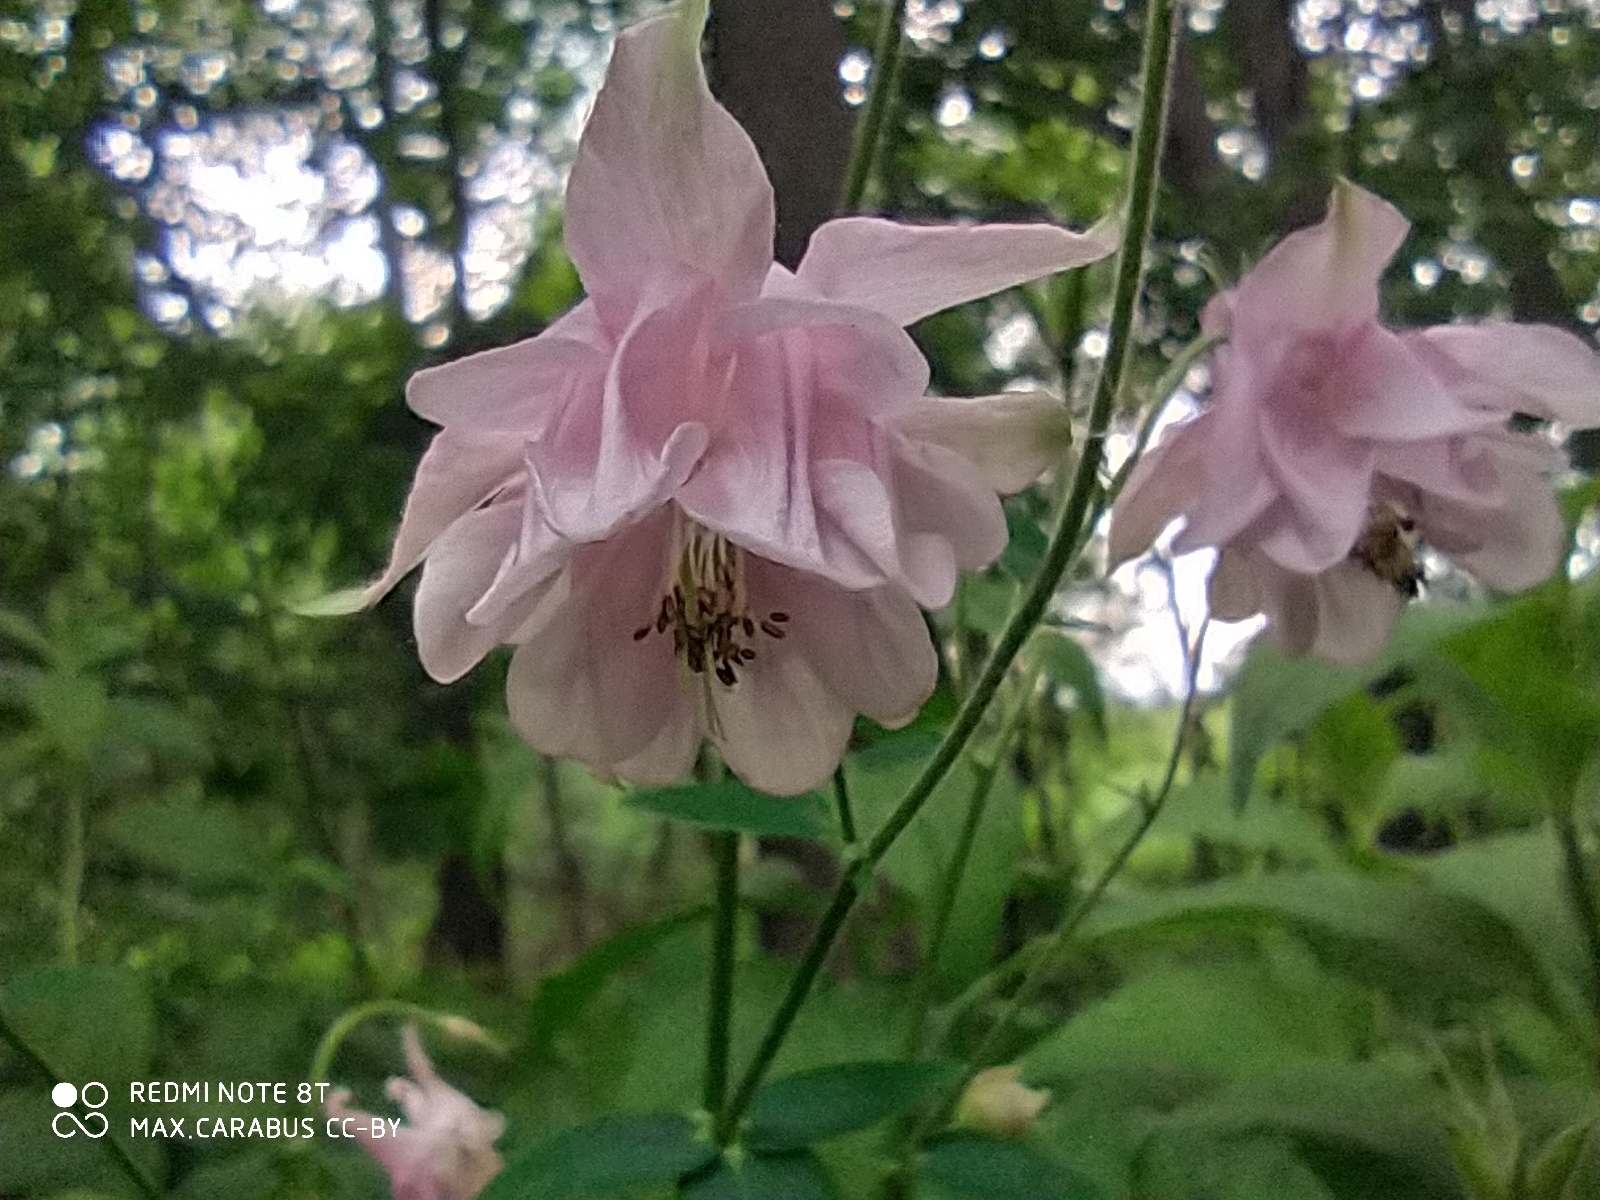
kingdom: Plantae
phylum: Tracheophyta
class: Magnoliopsida
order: Ranunculales
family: Ranunculaceae
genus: Aquilegia
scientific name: Aquilegia vulgaris
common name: Columbine
